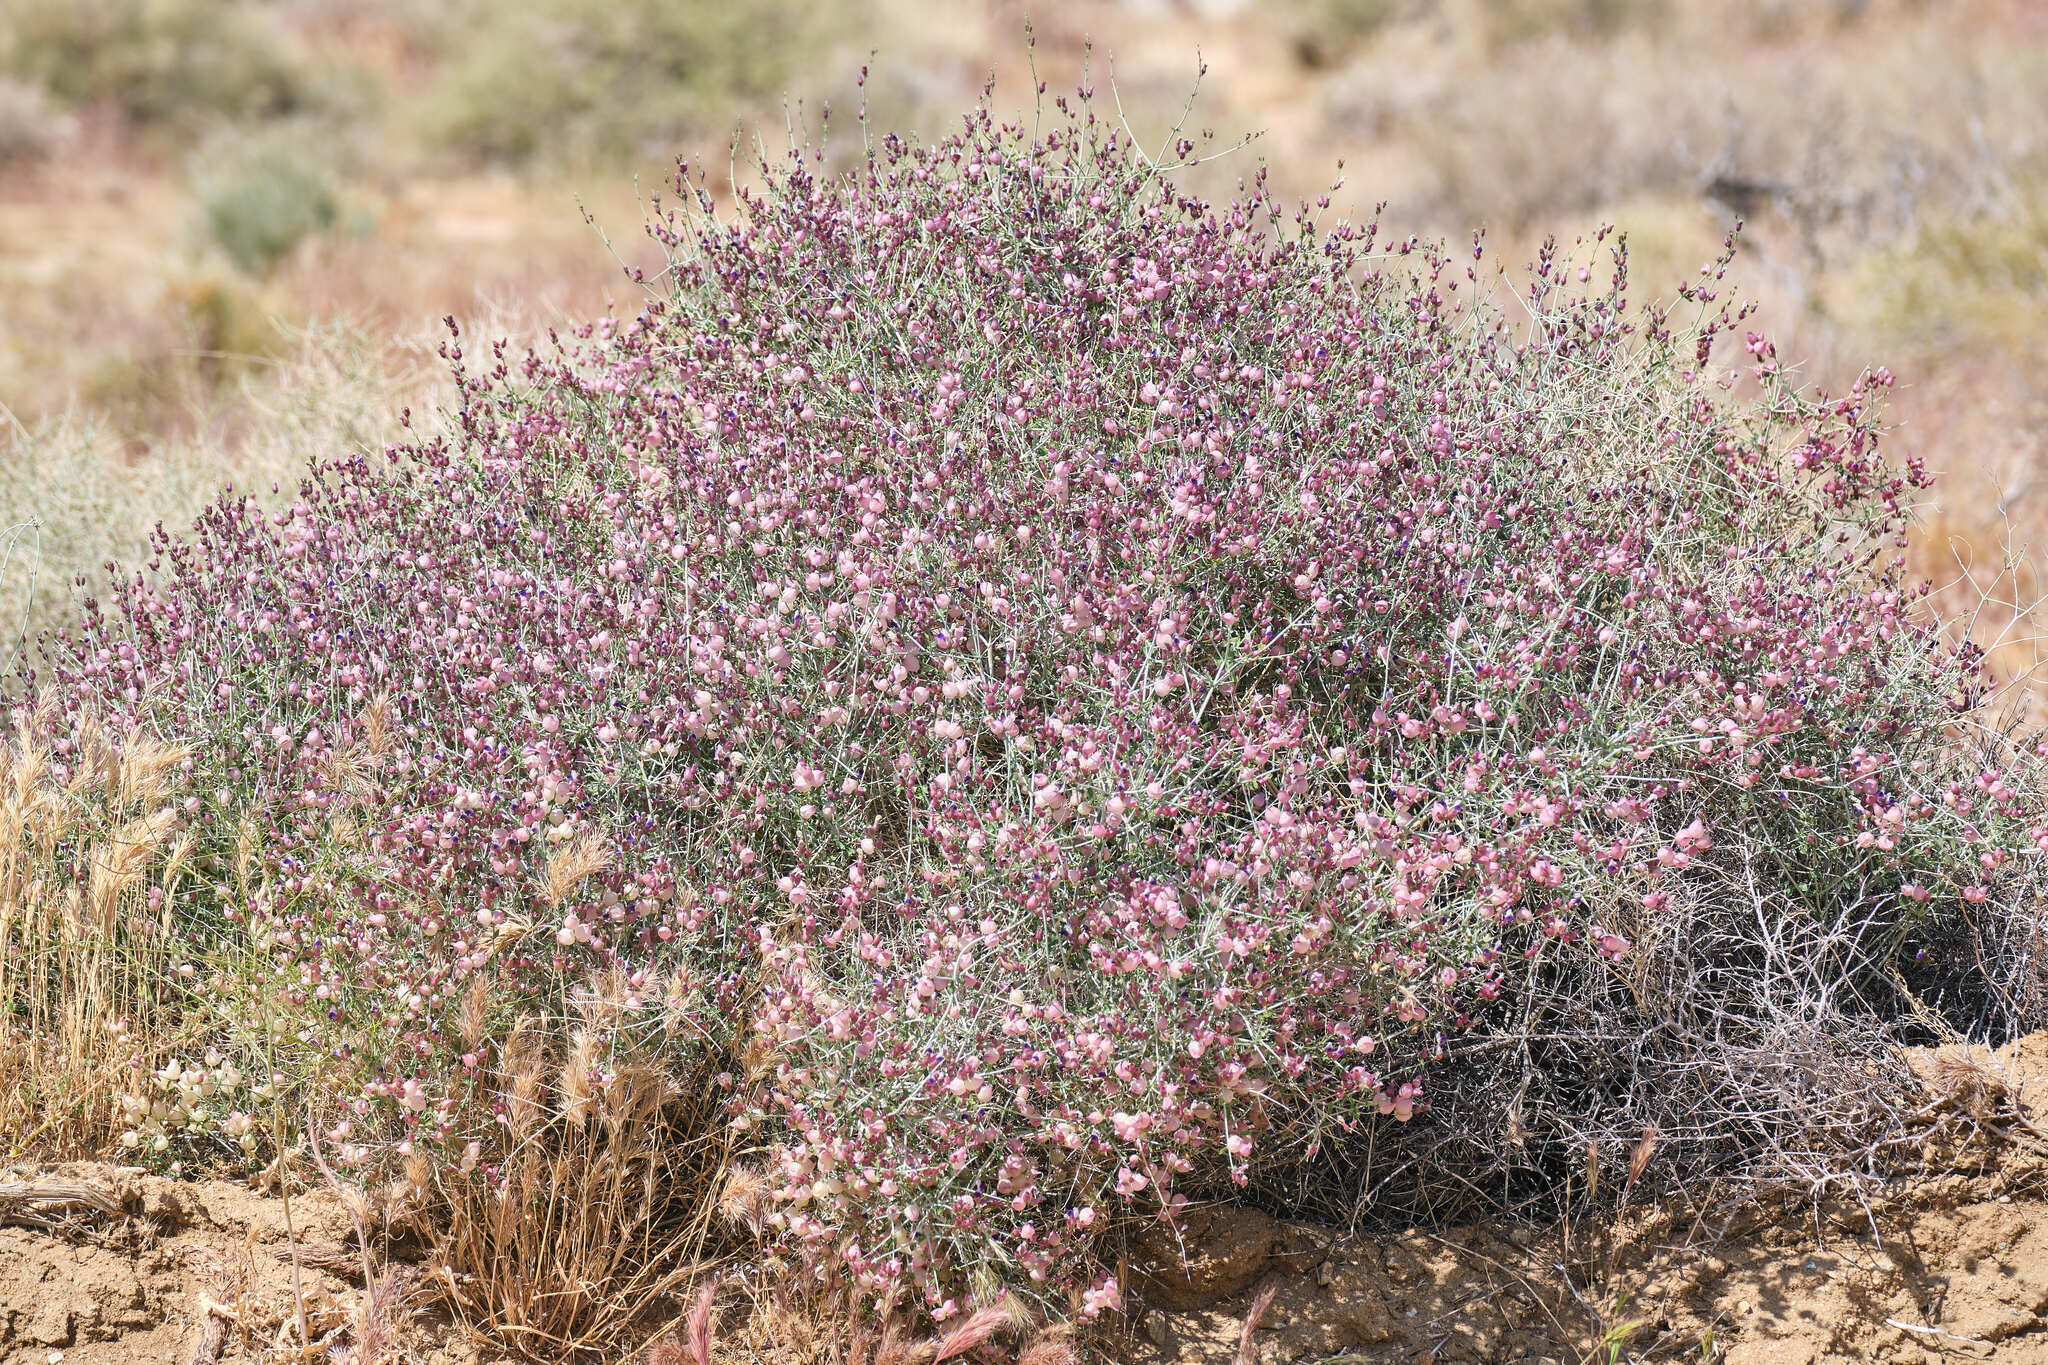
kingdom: Plantae
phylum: Tracheophyta
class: Magnoliopsida
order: Lamiales
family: Lamiaceae
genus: Scutellaria
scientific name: Scutellaria mexicana
